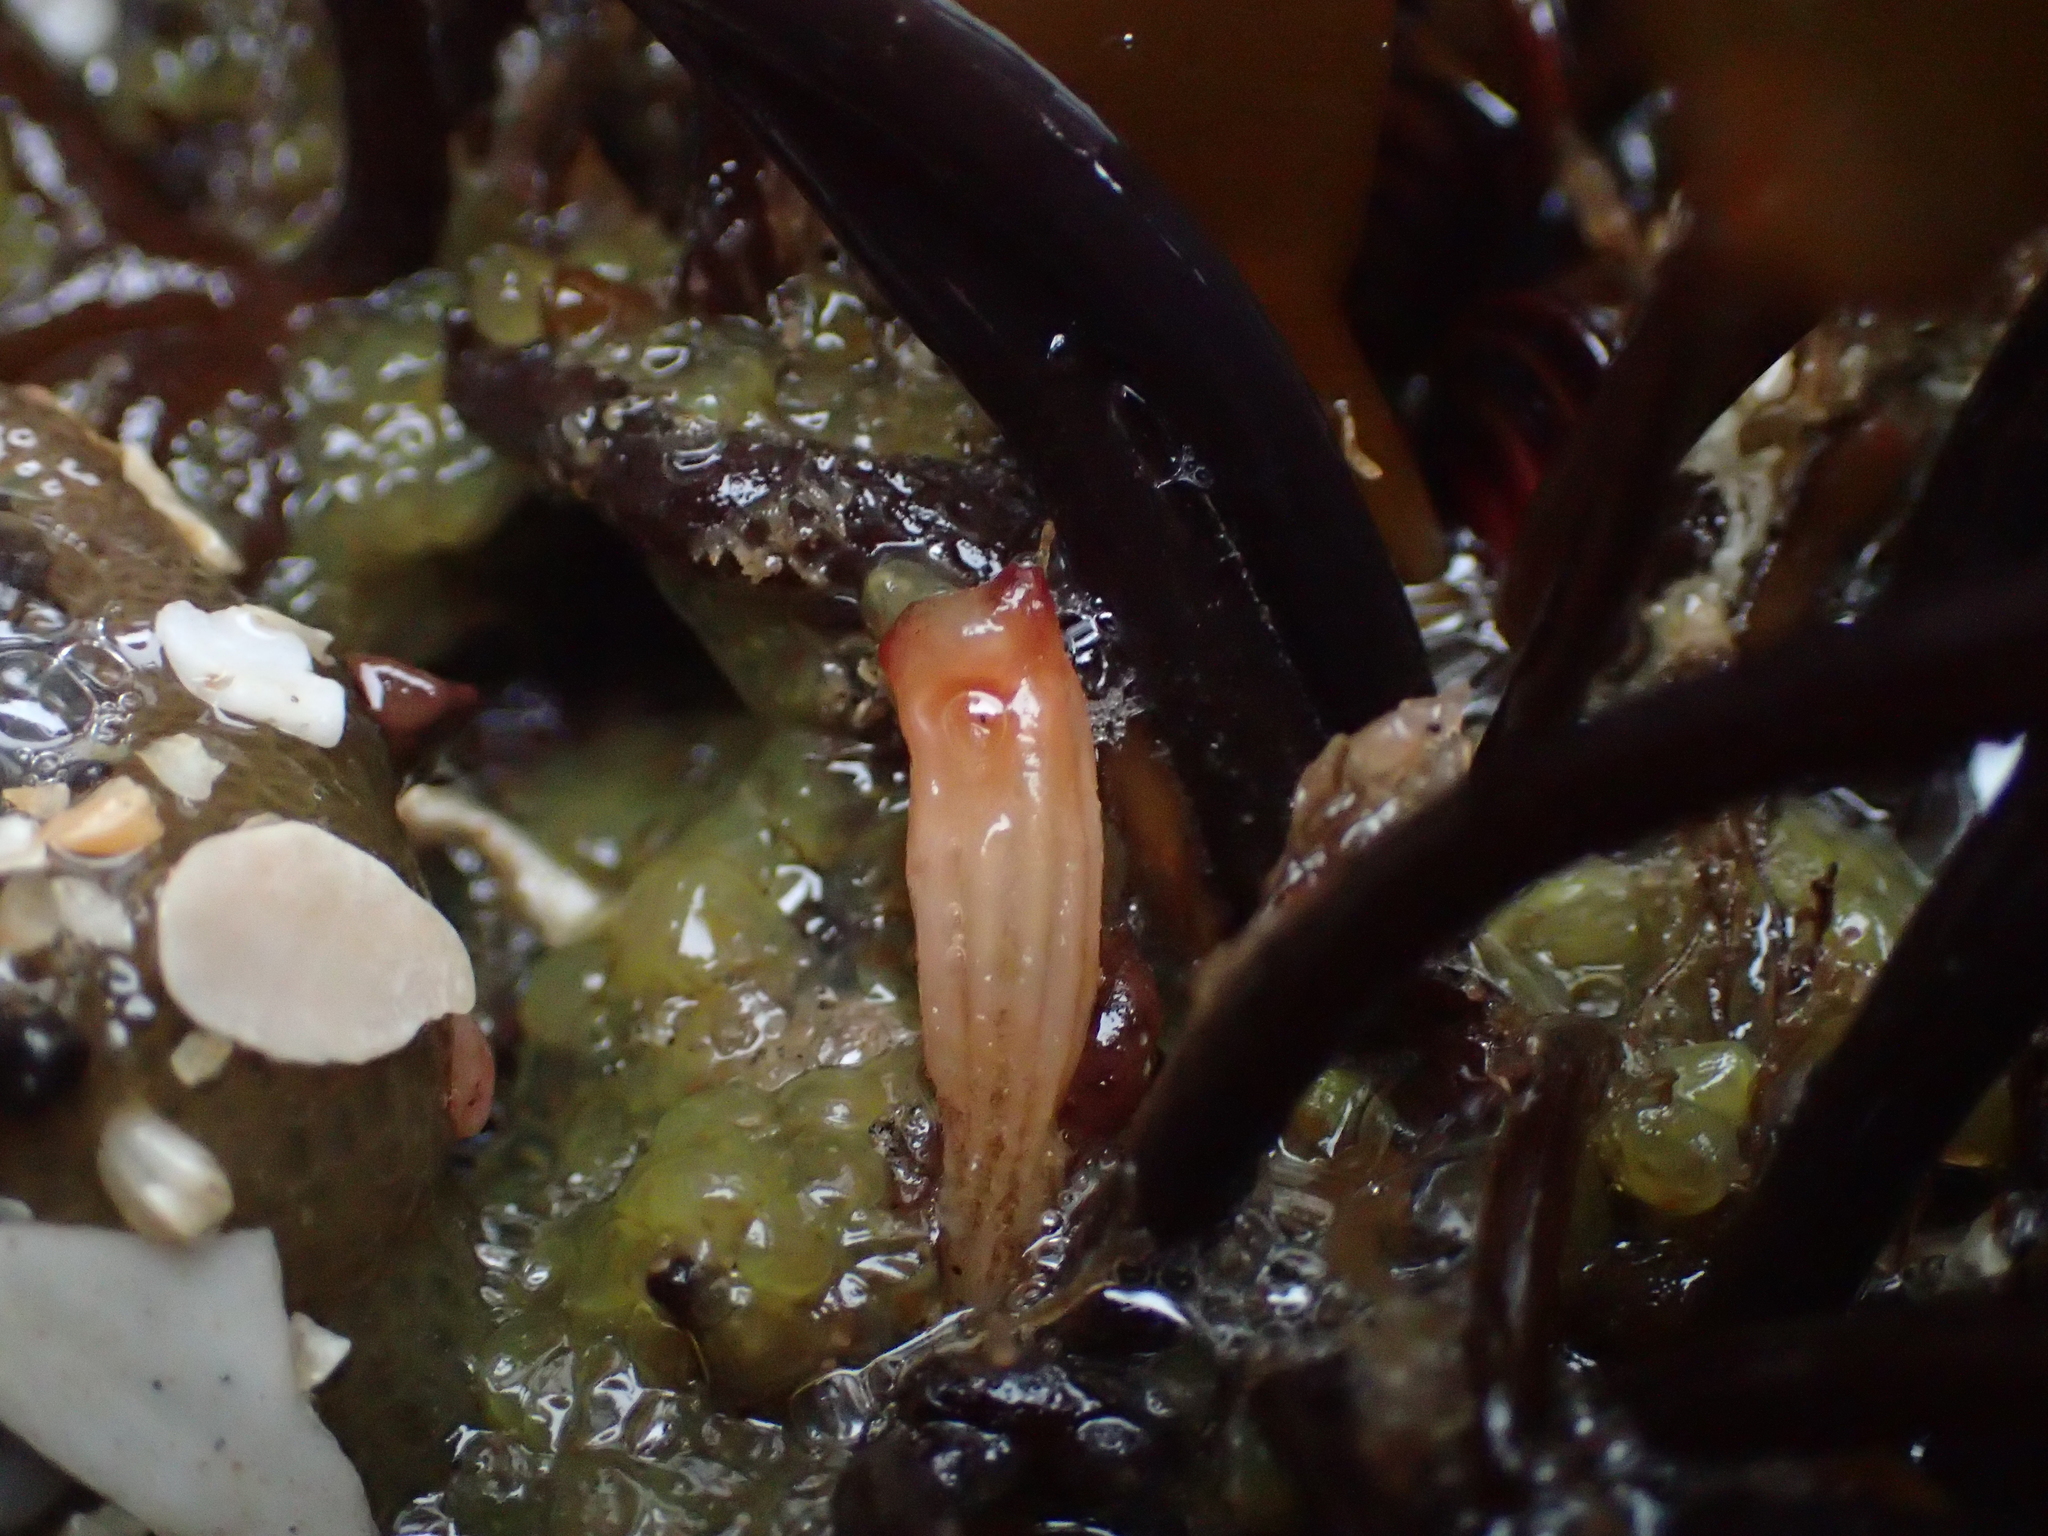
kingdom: Animalia
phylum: Chordata
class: Ascidiacea
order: Stolidobranchia
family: Styelidae
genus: Styela
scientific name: Styela montereyensis
